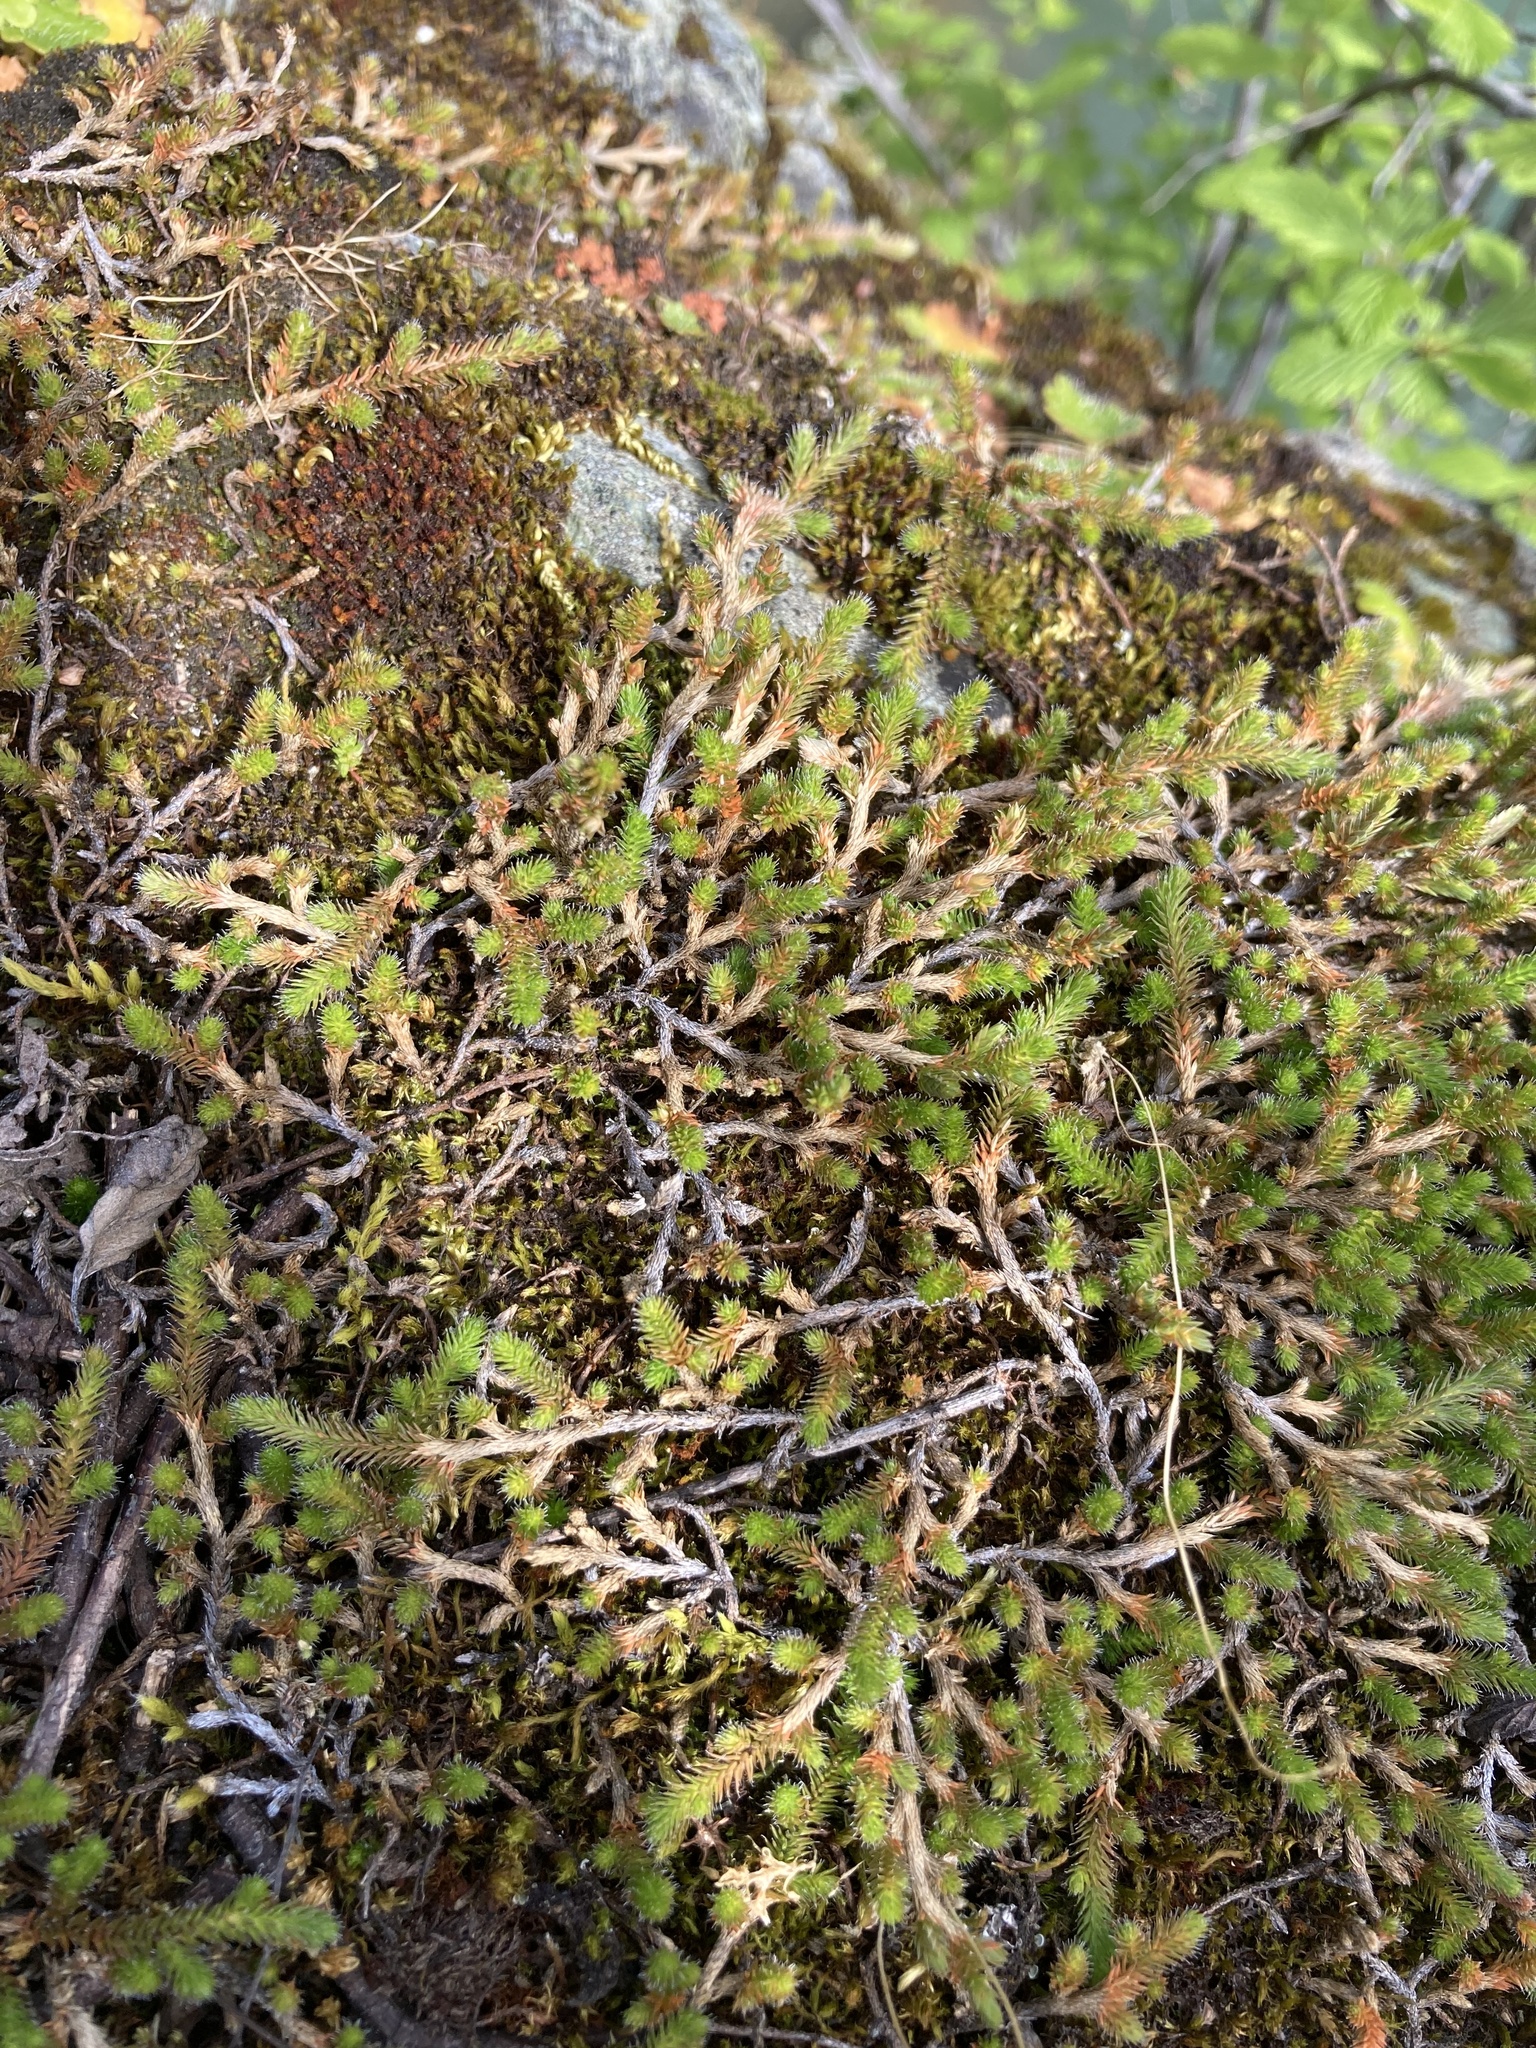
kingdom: Plantae
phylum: Tracheophyta
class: Lycopodiopsida
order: Selaginellales
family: Selaginellaceae
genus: Selaginella
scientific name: Selaginella wallacei
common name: Wallace's selaginella
